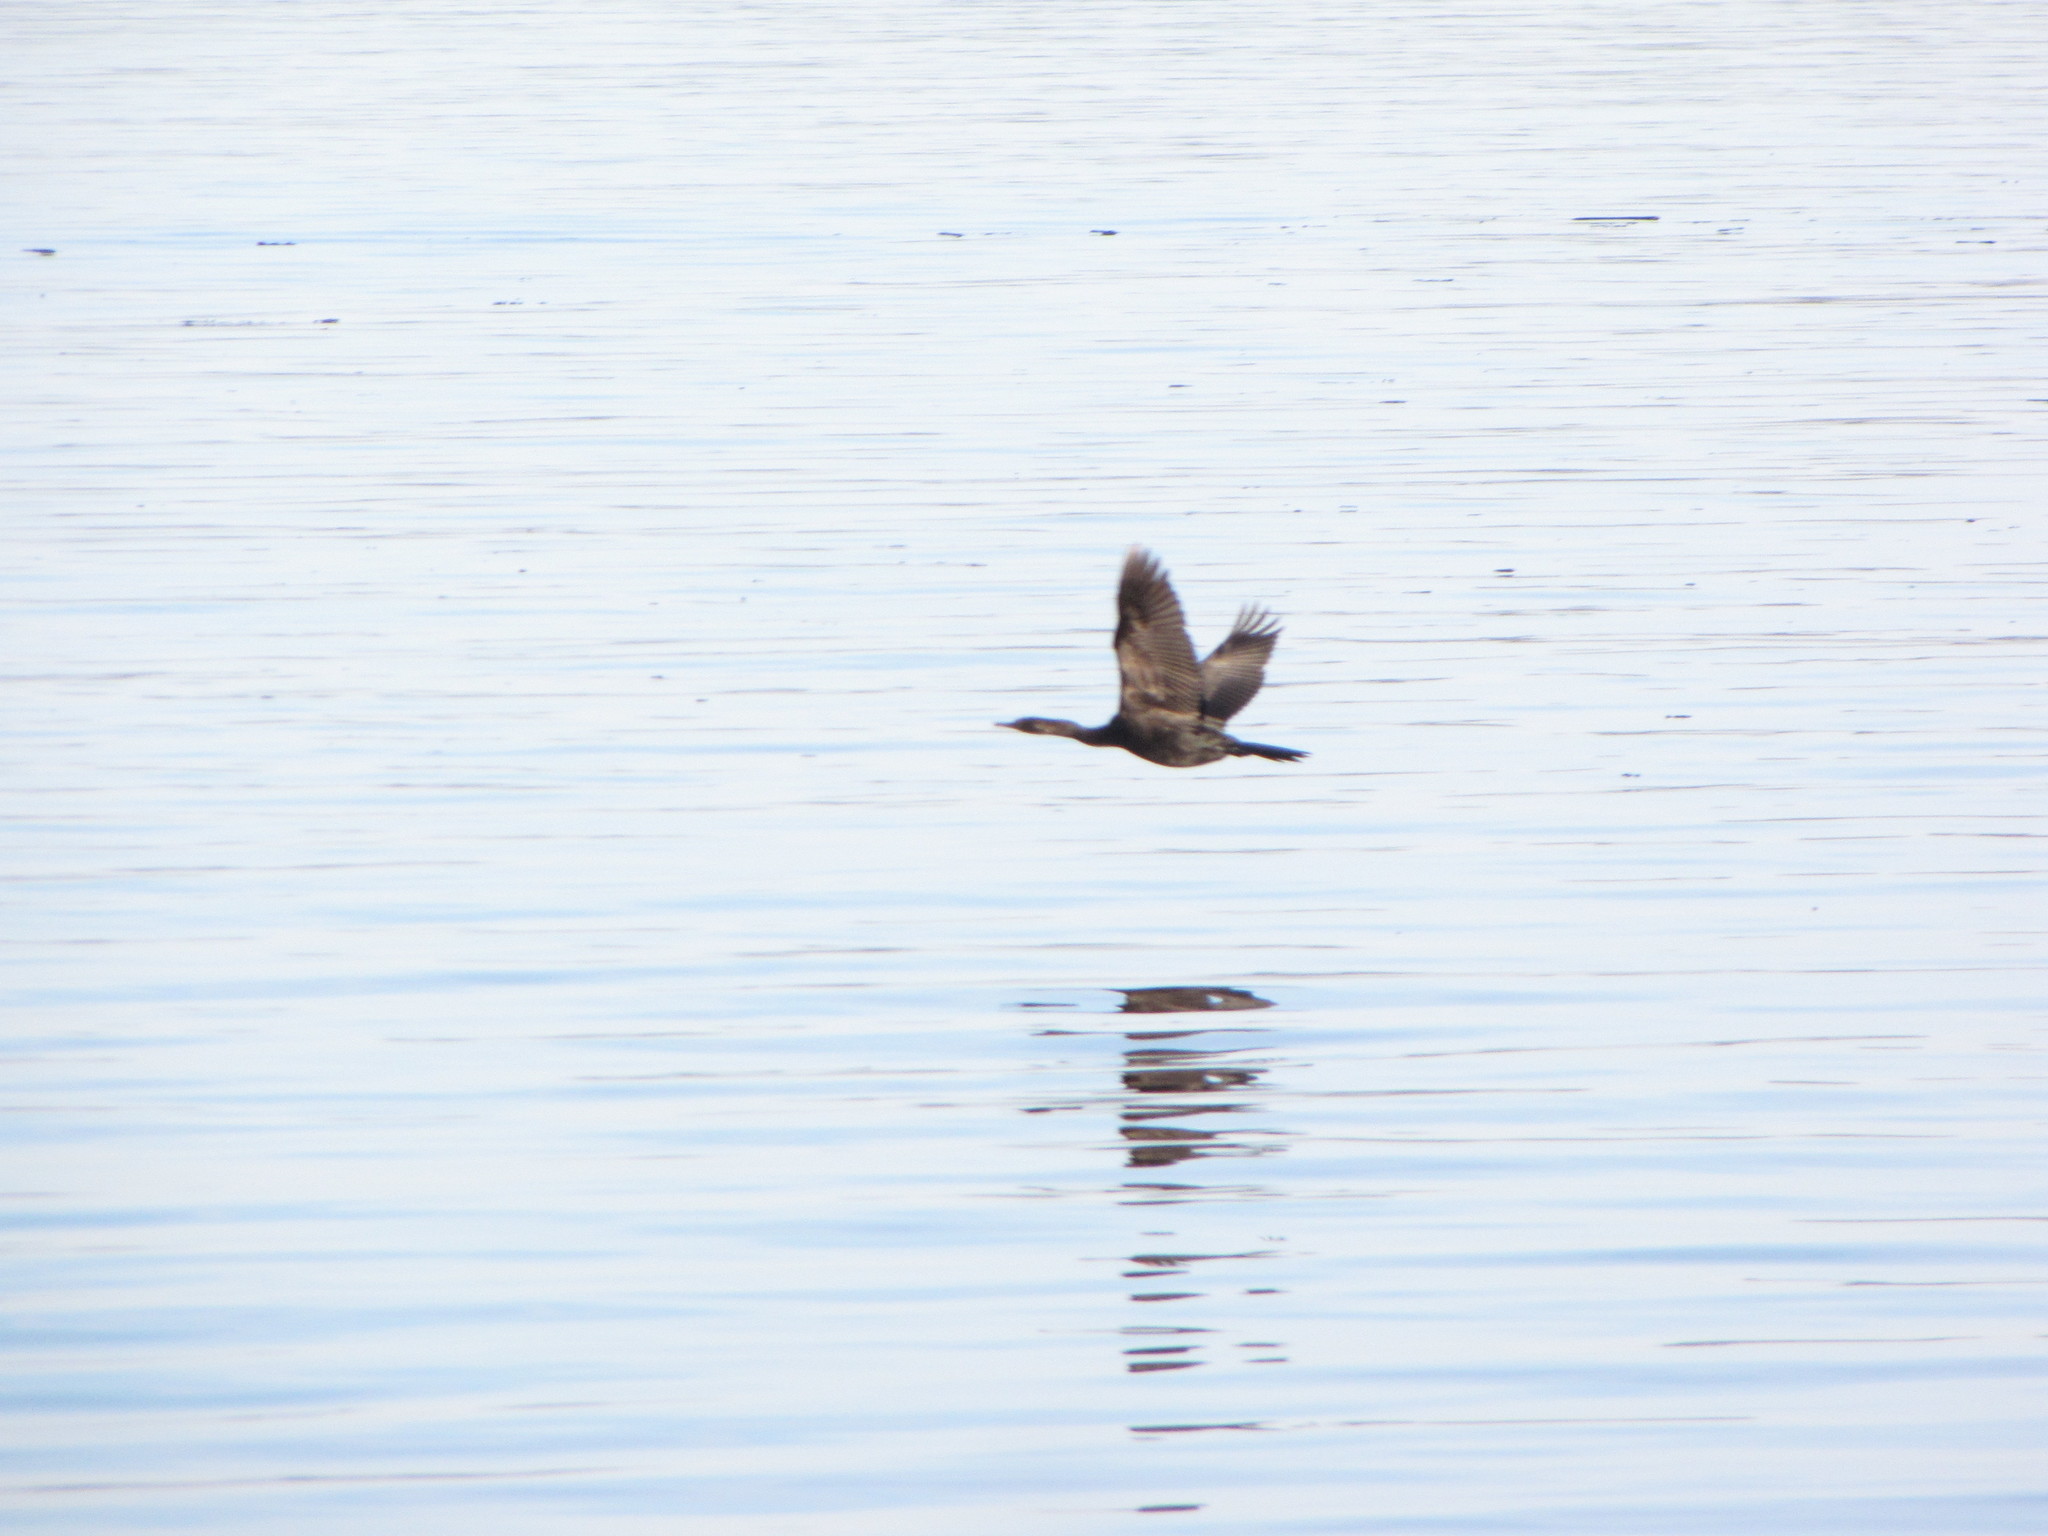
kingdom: Animalia
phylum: Chordata
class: Aves
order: Suliformes
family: Phalacrocoracidae
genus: Phalacrocorax
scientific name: Phalacrocorax pelagicus
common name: Pelagic cormorant
